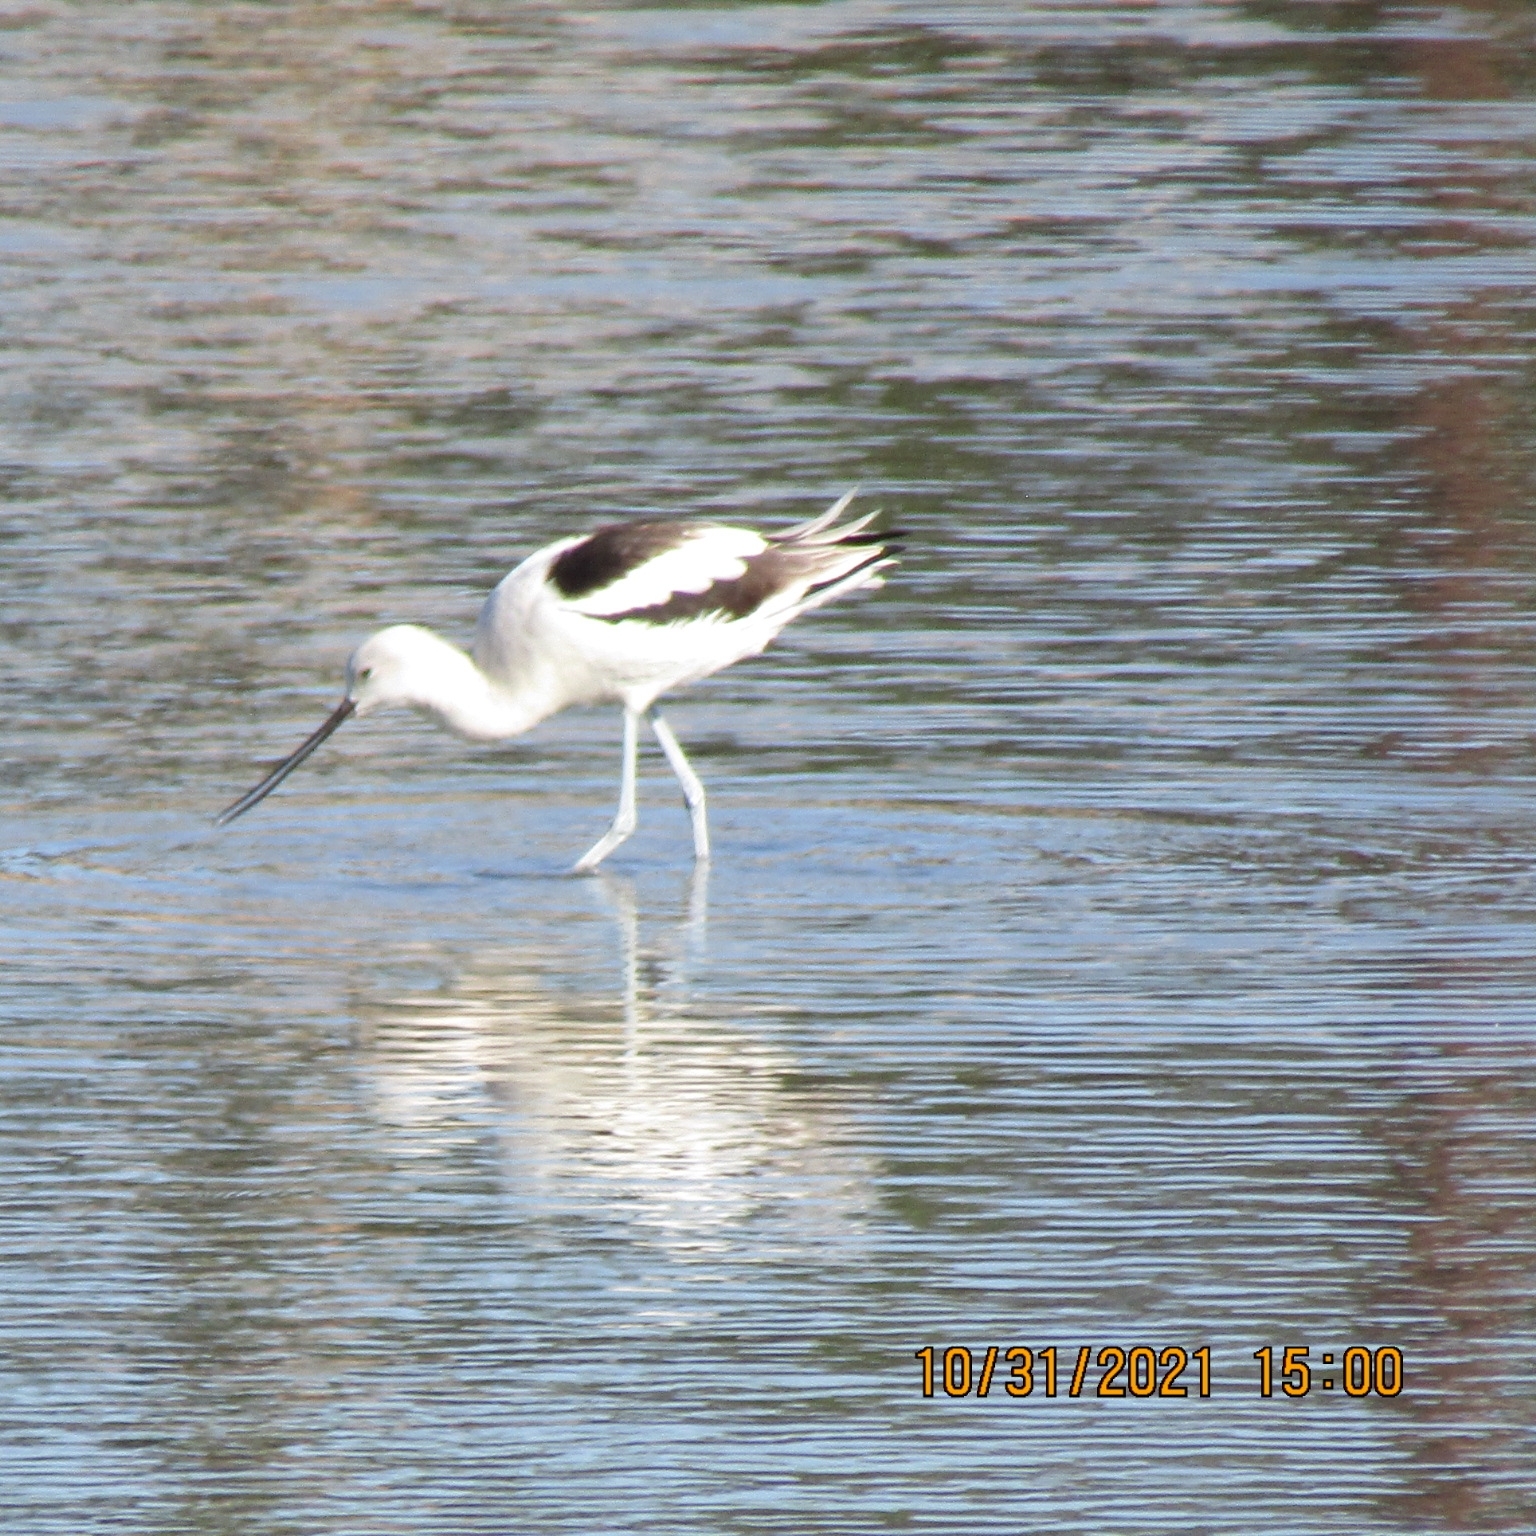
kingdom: Animalia
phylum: Chordata
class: Aves
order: Charadriiformes
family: Recurvirostridae
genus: Recurvirostra
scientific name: Recurvirostra americana
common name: American avocet
